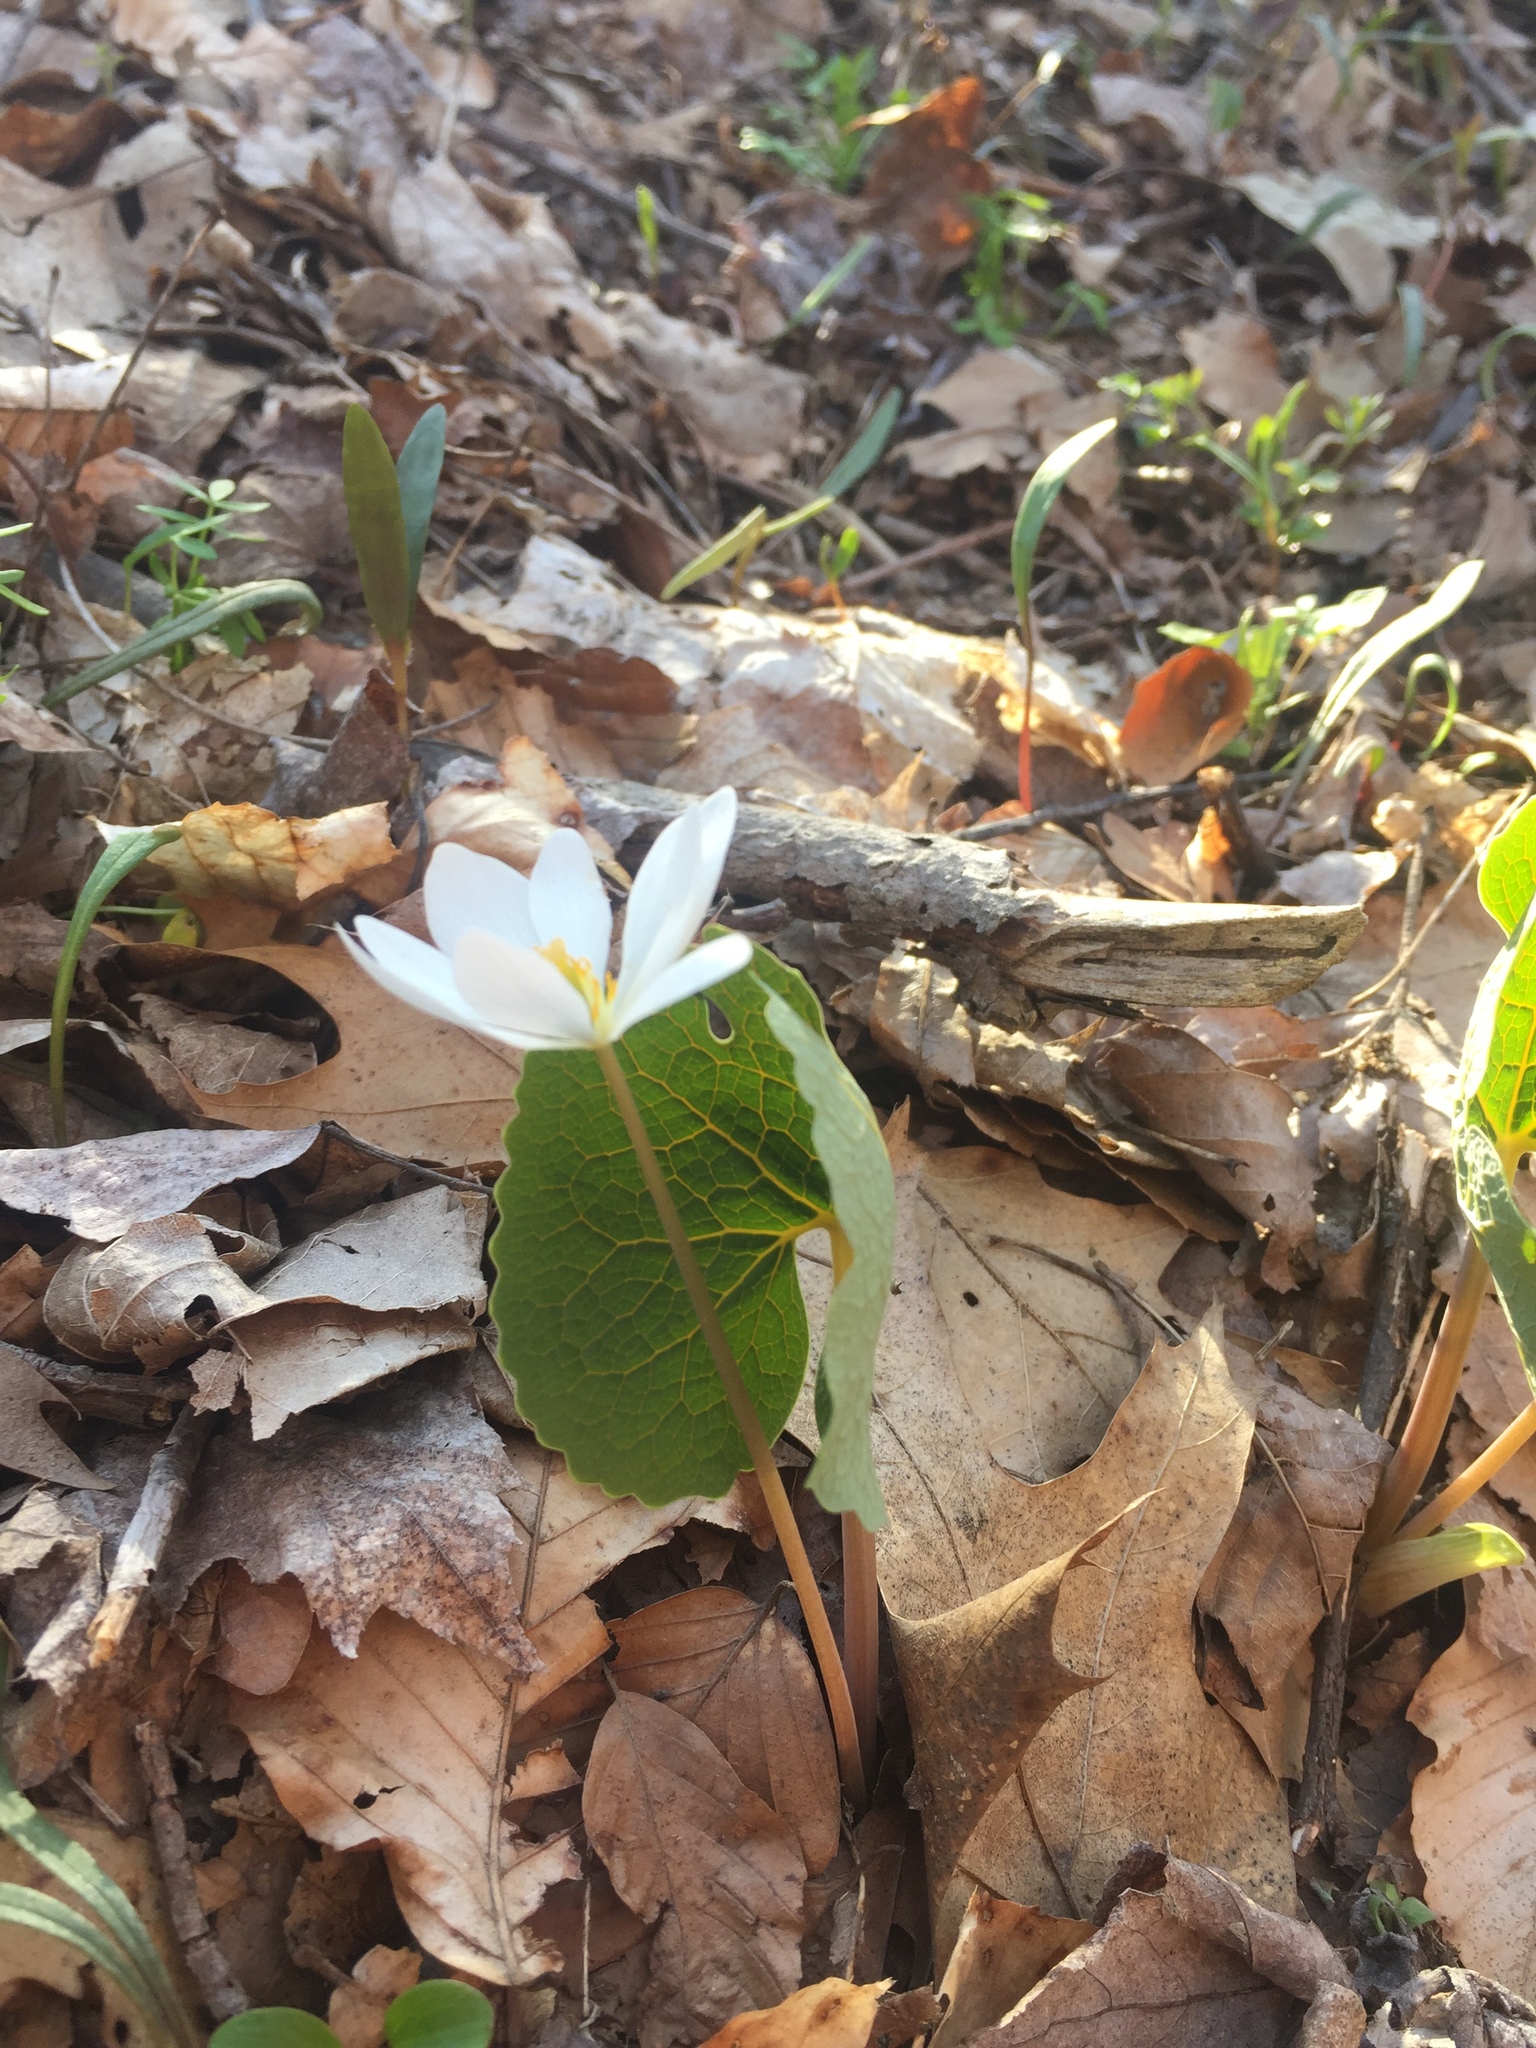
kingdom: Plantae
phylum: Tracheophyta
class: Magnoliopsida
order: Ranunculales
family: Papaveraceae
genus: Sanguinaria
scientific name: Sanguinaria canadensis
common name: Bloodroot
